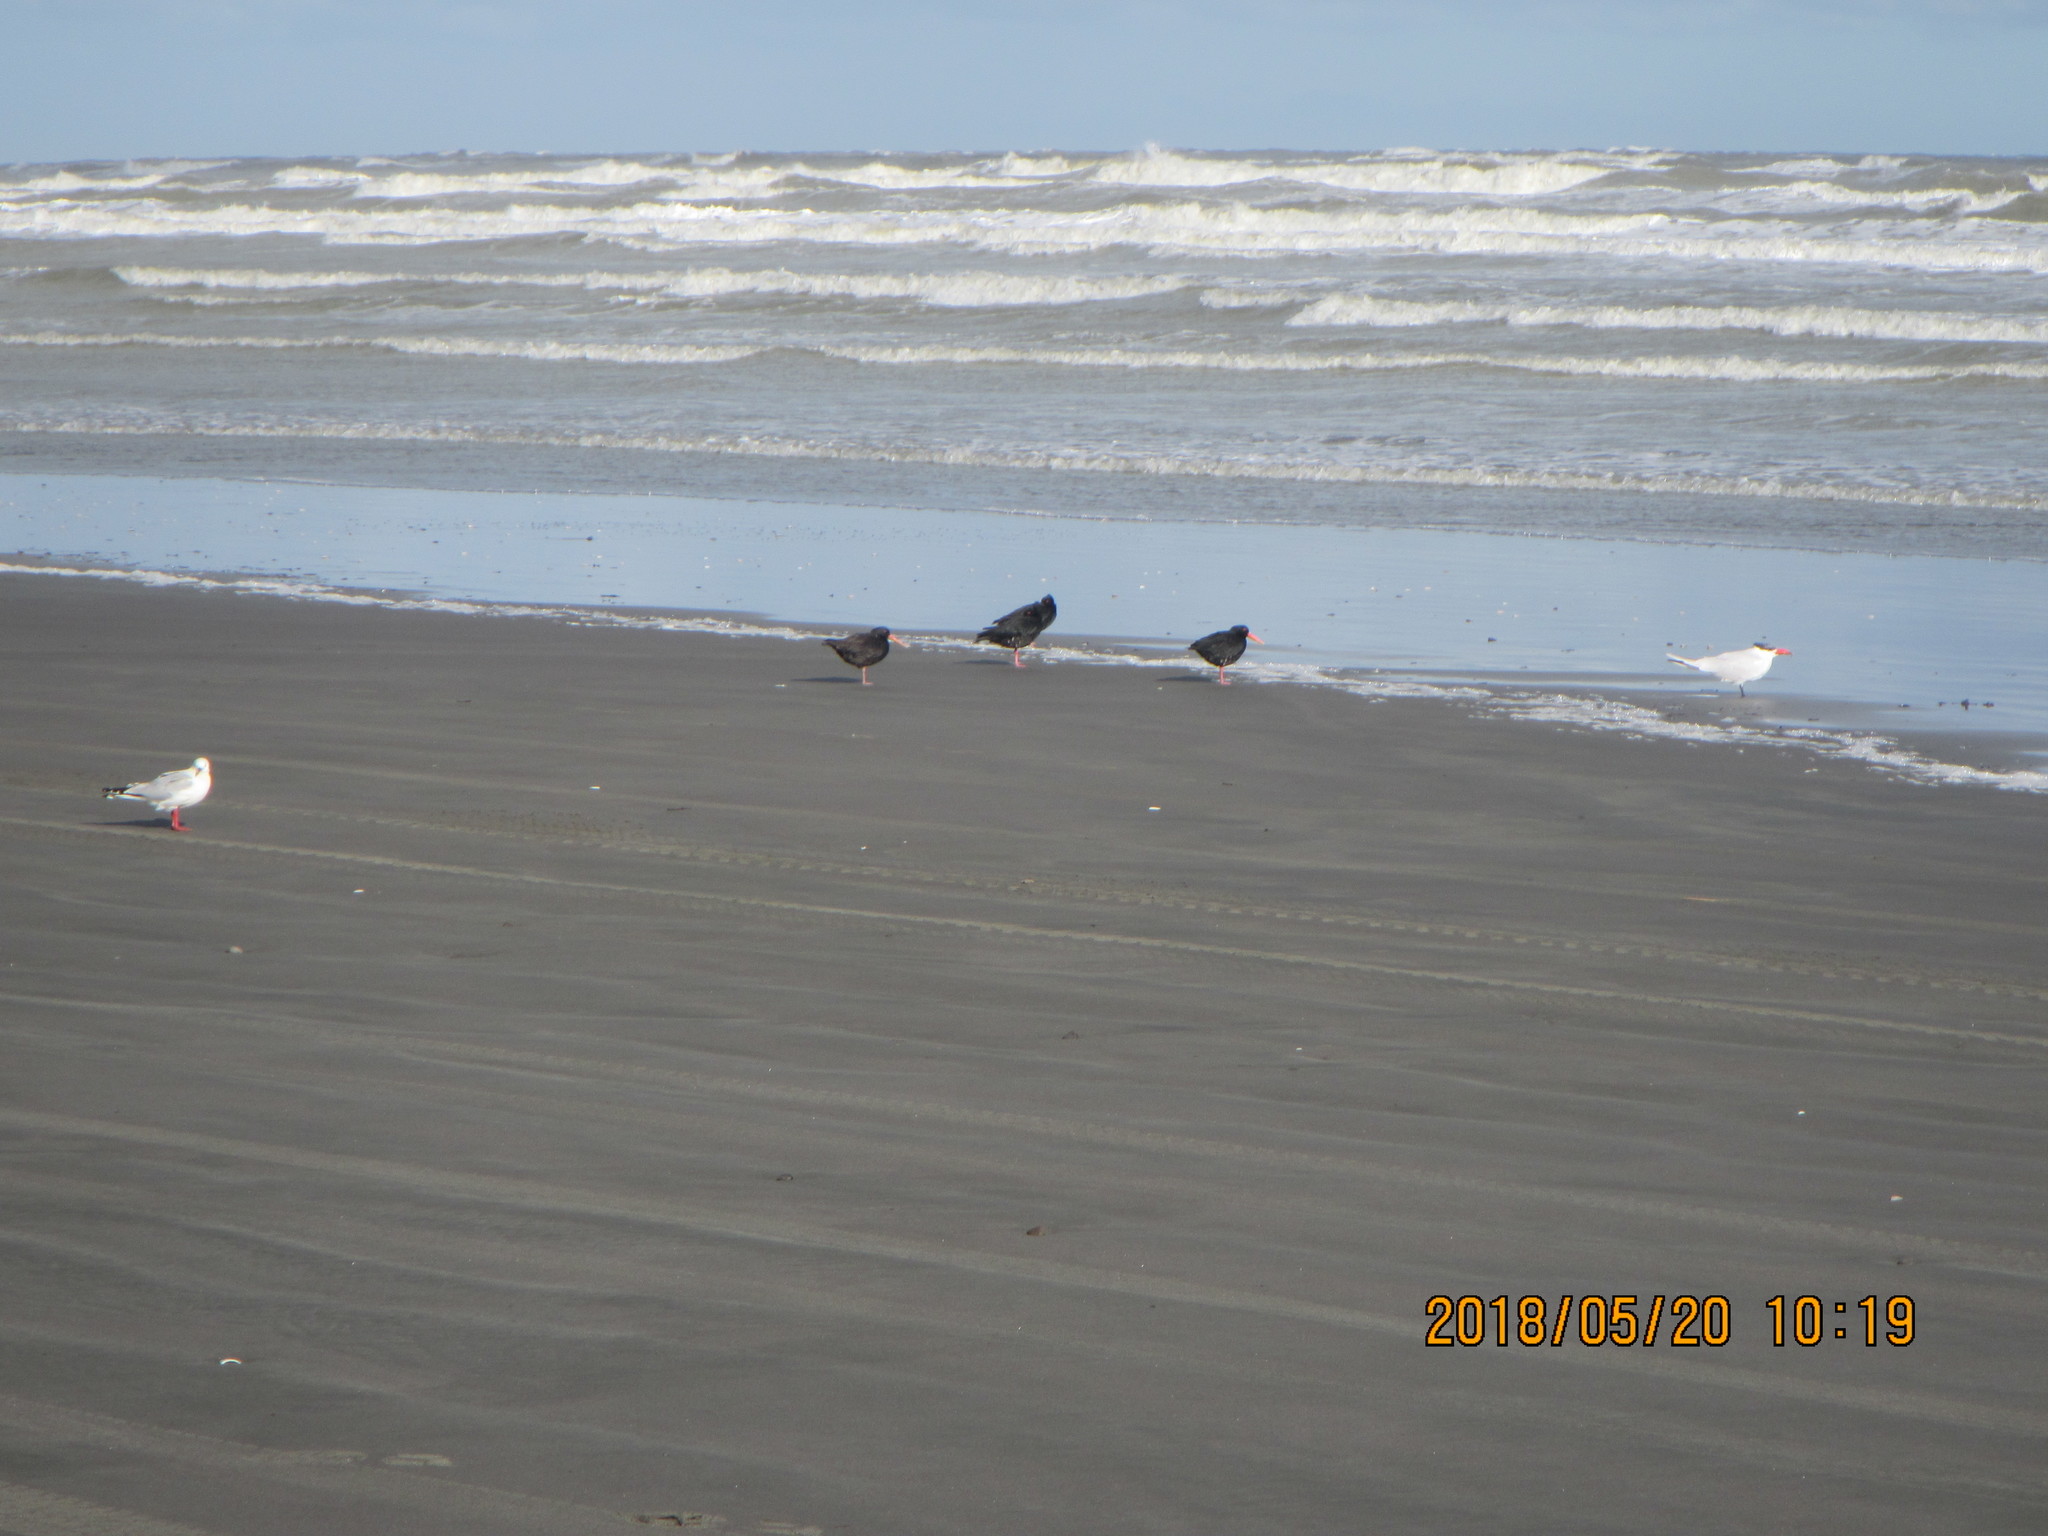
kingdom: Animalia
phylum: Chordata
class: Aves
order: Charadriiformes
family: Haematopodidae
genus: Haematopus
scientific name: Haematopus unicolor
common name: Variable oystercatcher
